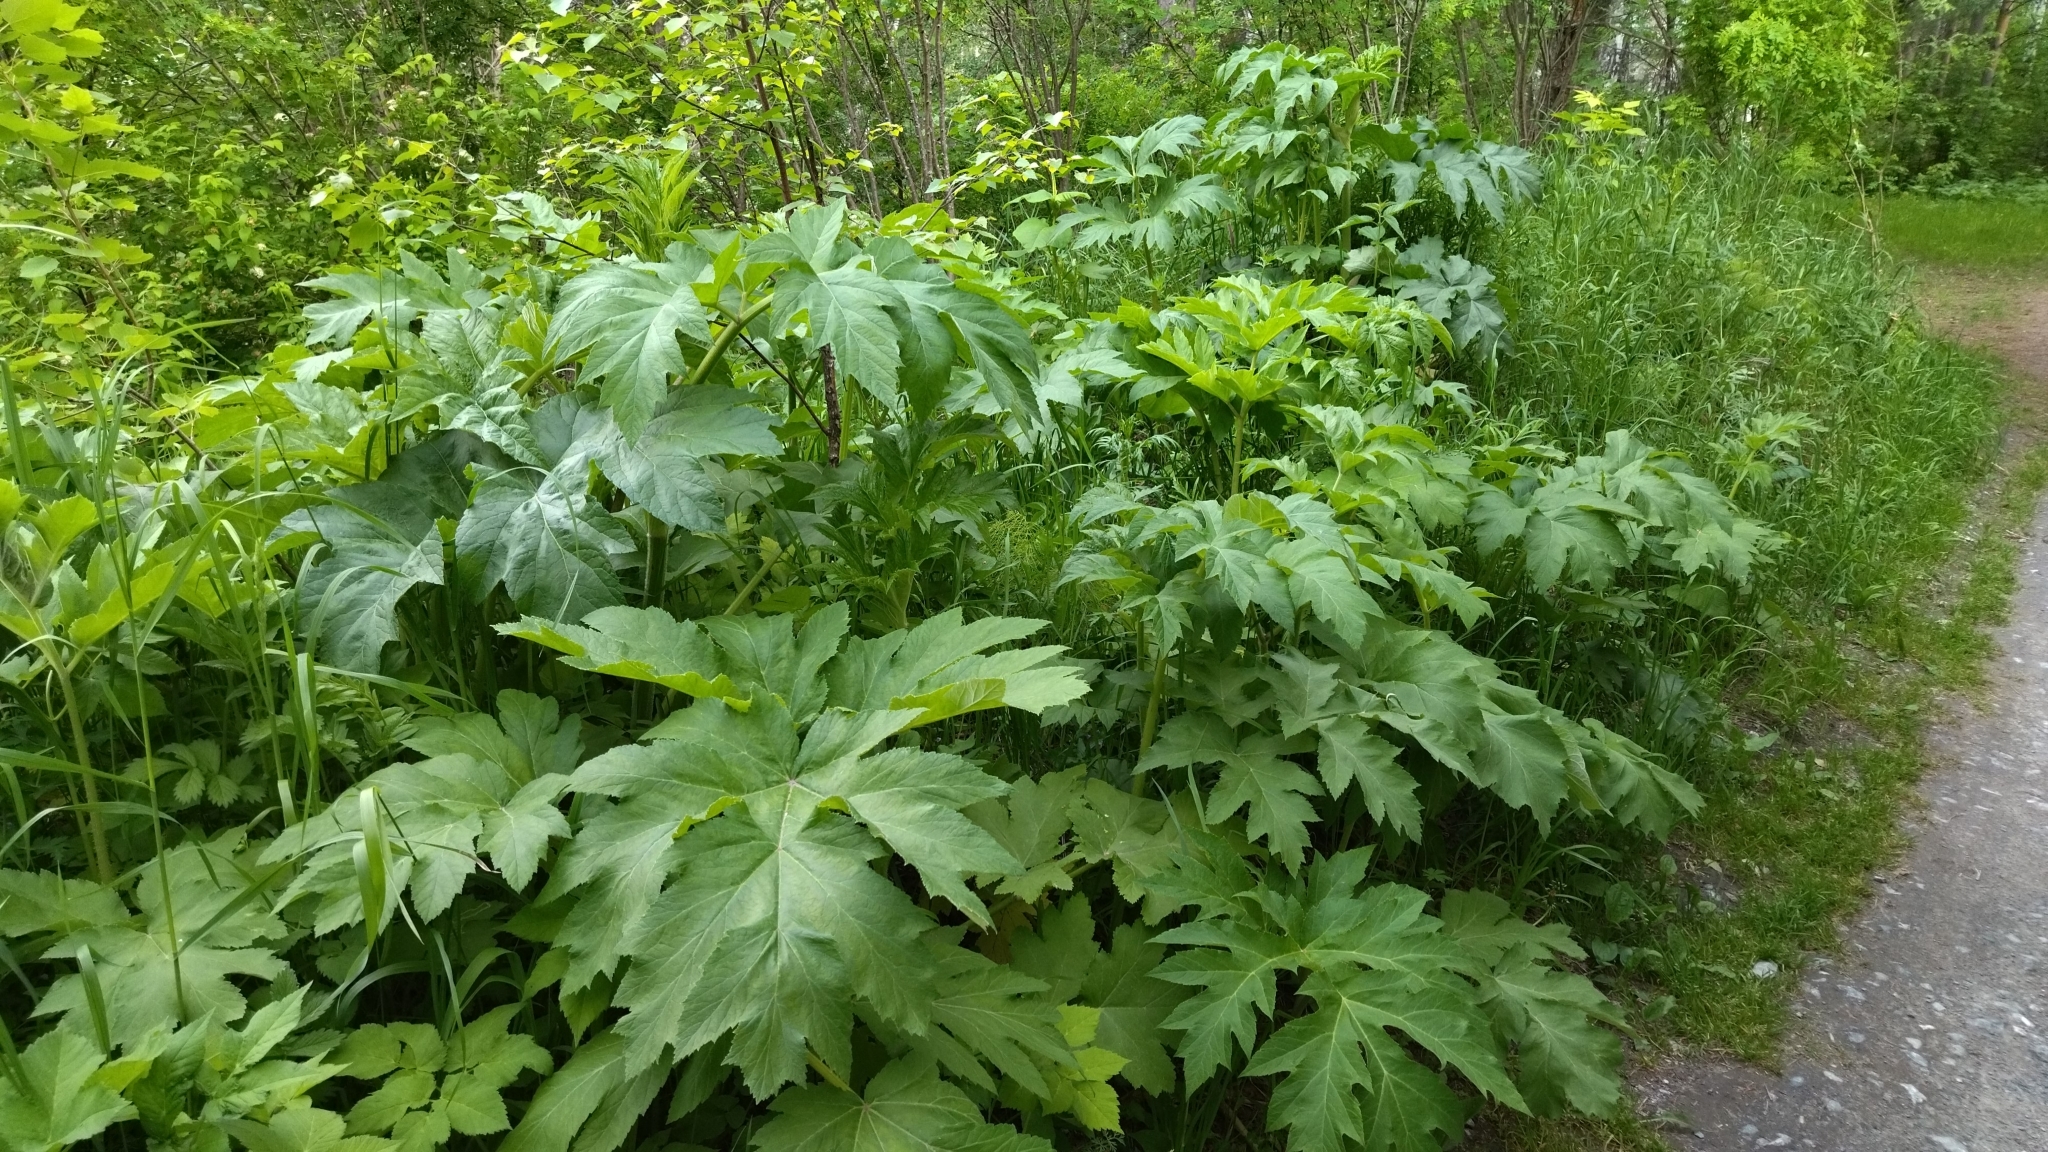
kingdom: Plantae
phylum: Tracheophyta
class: Magnoliopsida
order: Apiales
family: Apiaceae
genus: Heracleum
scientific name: Heracleum dissectum
